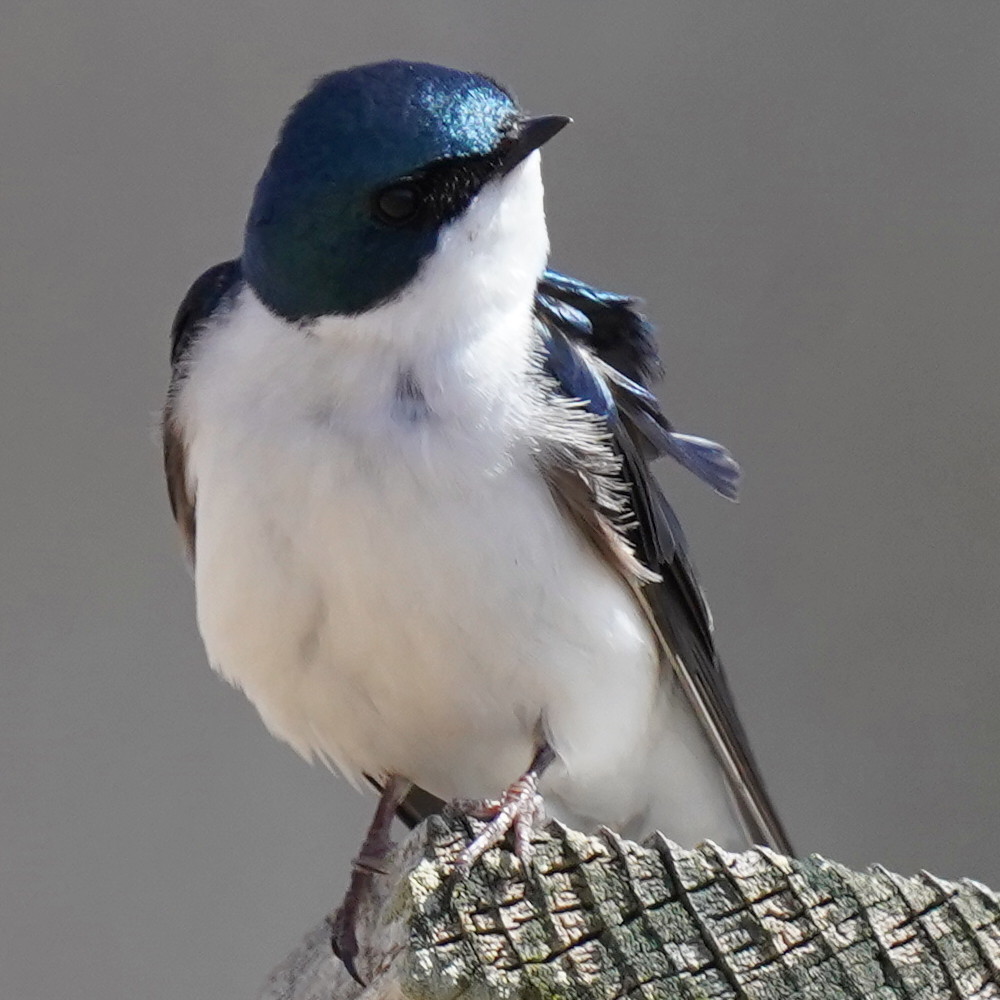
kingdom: Animalia
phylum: Chordata
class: Aves
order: Passeriformes
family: Hirundinidae
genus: Tachycineta
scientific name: Tachycineta bicolor
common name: Tree swallow
